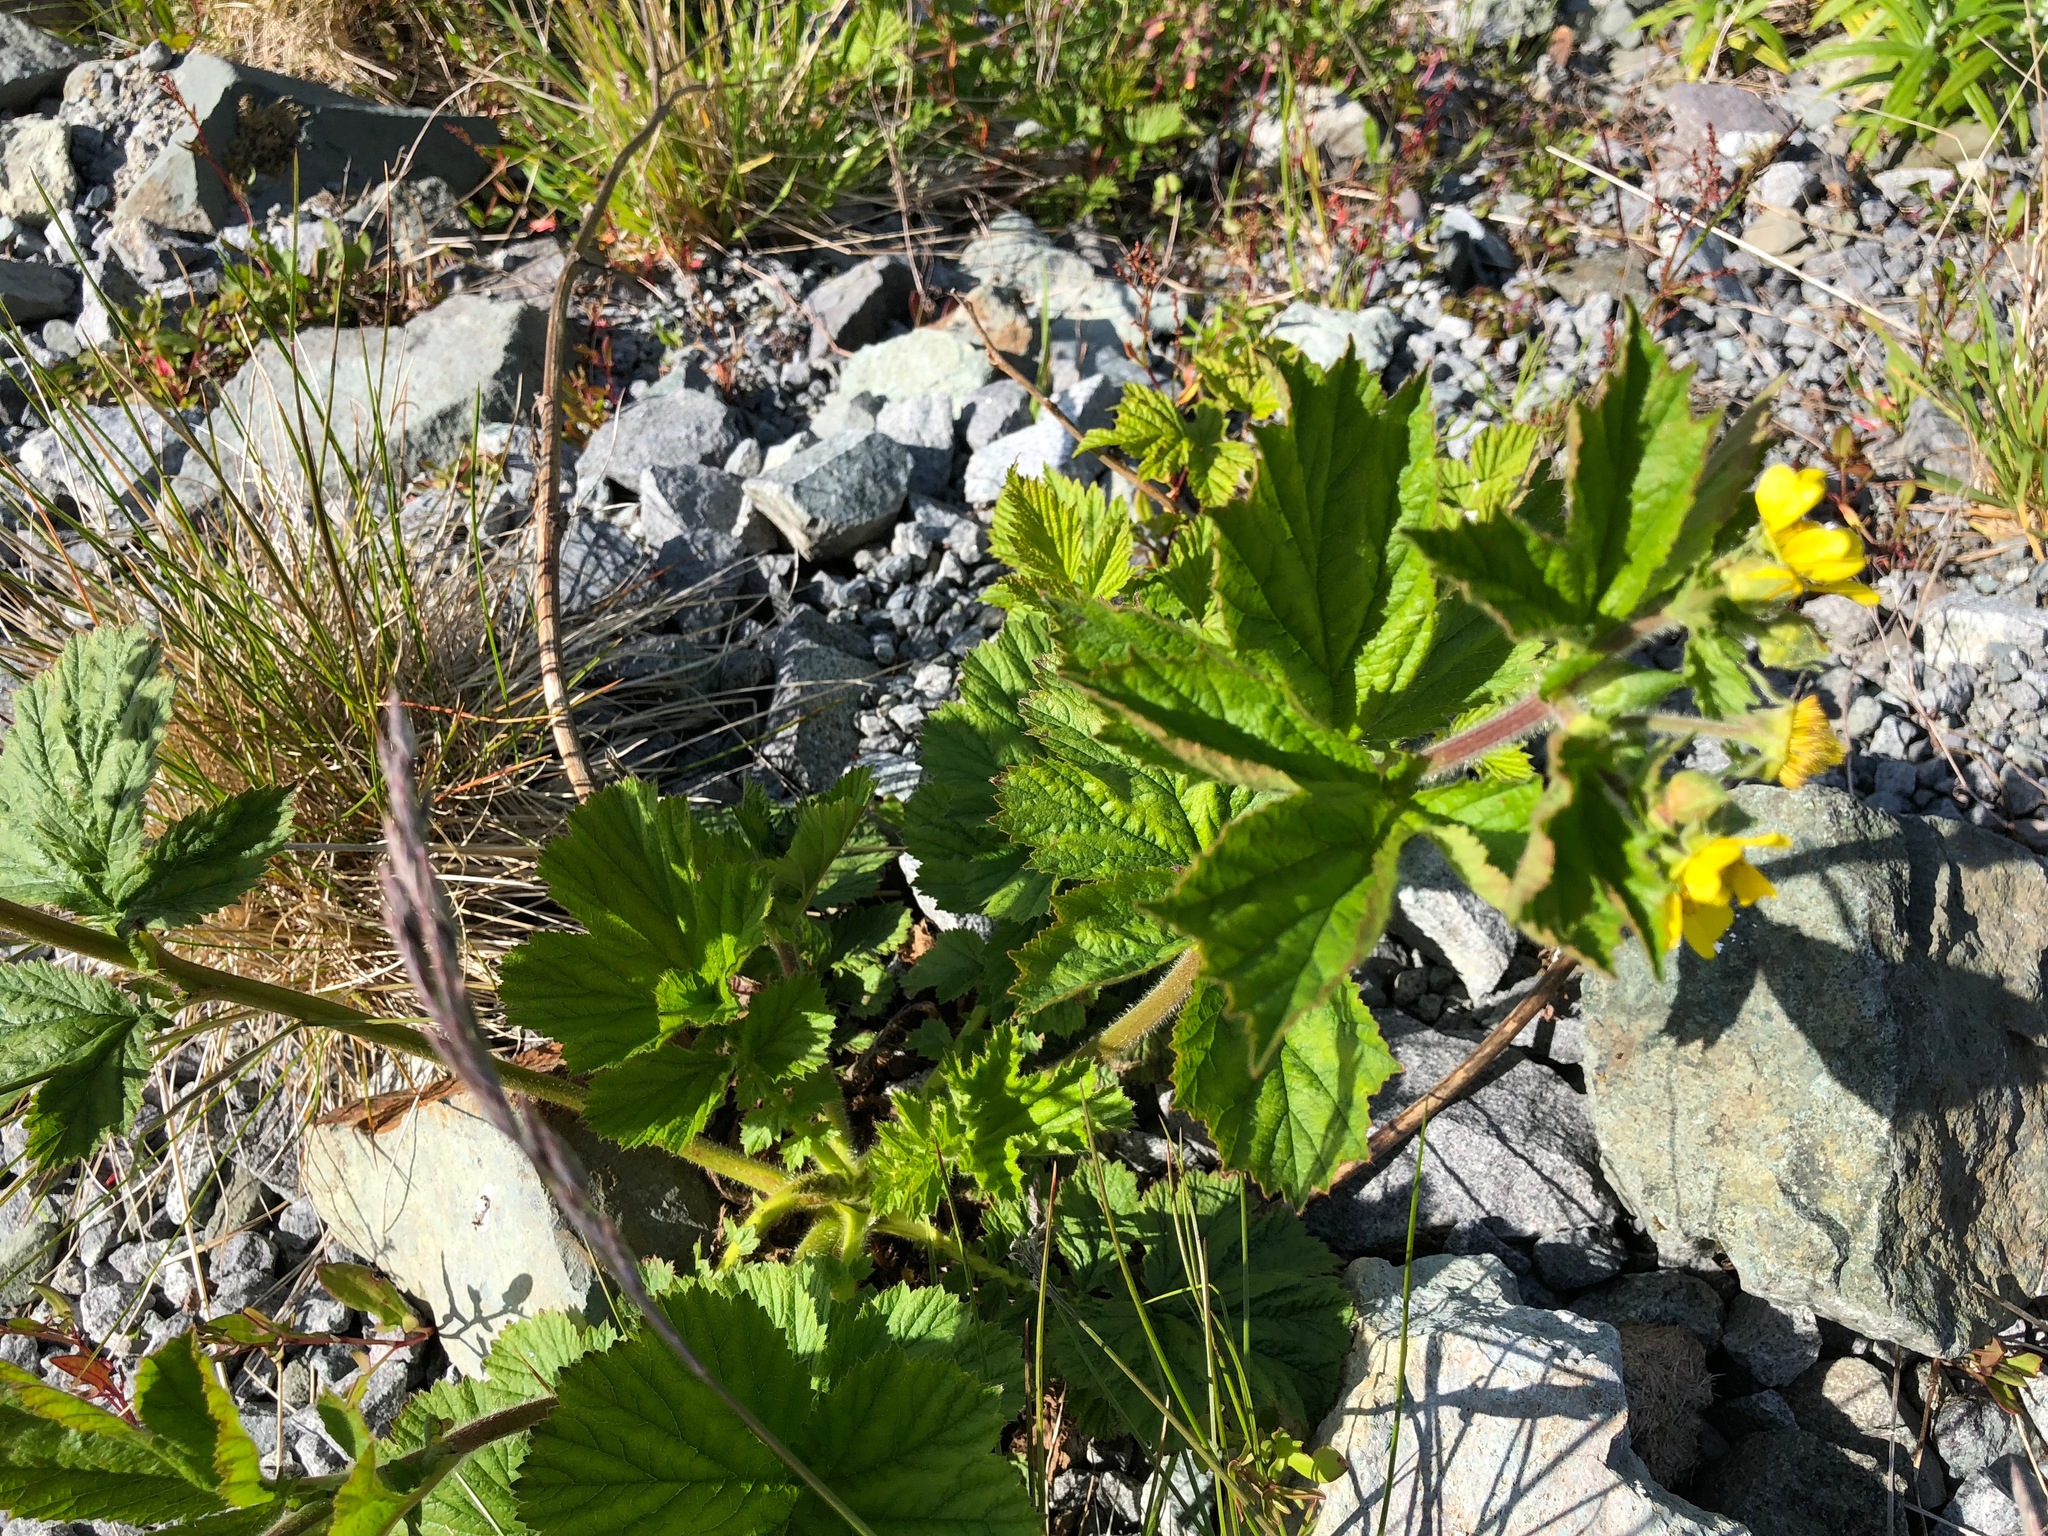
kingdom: Plantae
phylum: Tracheophyta
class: Magnoliopsida
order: Rosales
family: Rosaceae
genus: Geum
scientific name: Geum macrophyllum
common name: Large-leaved avens
